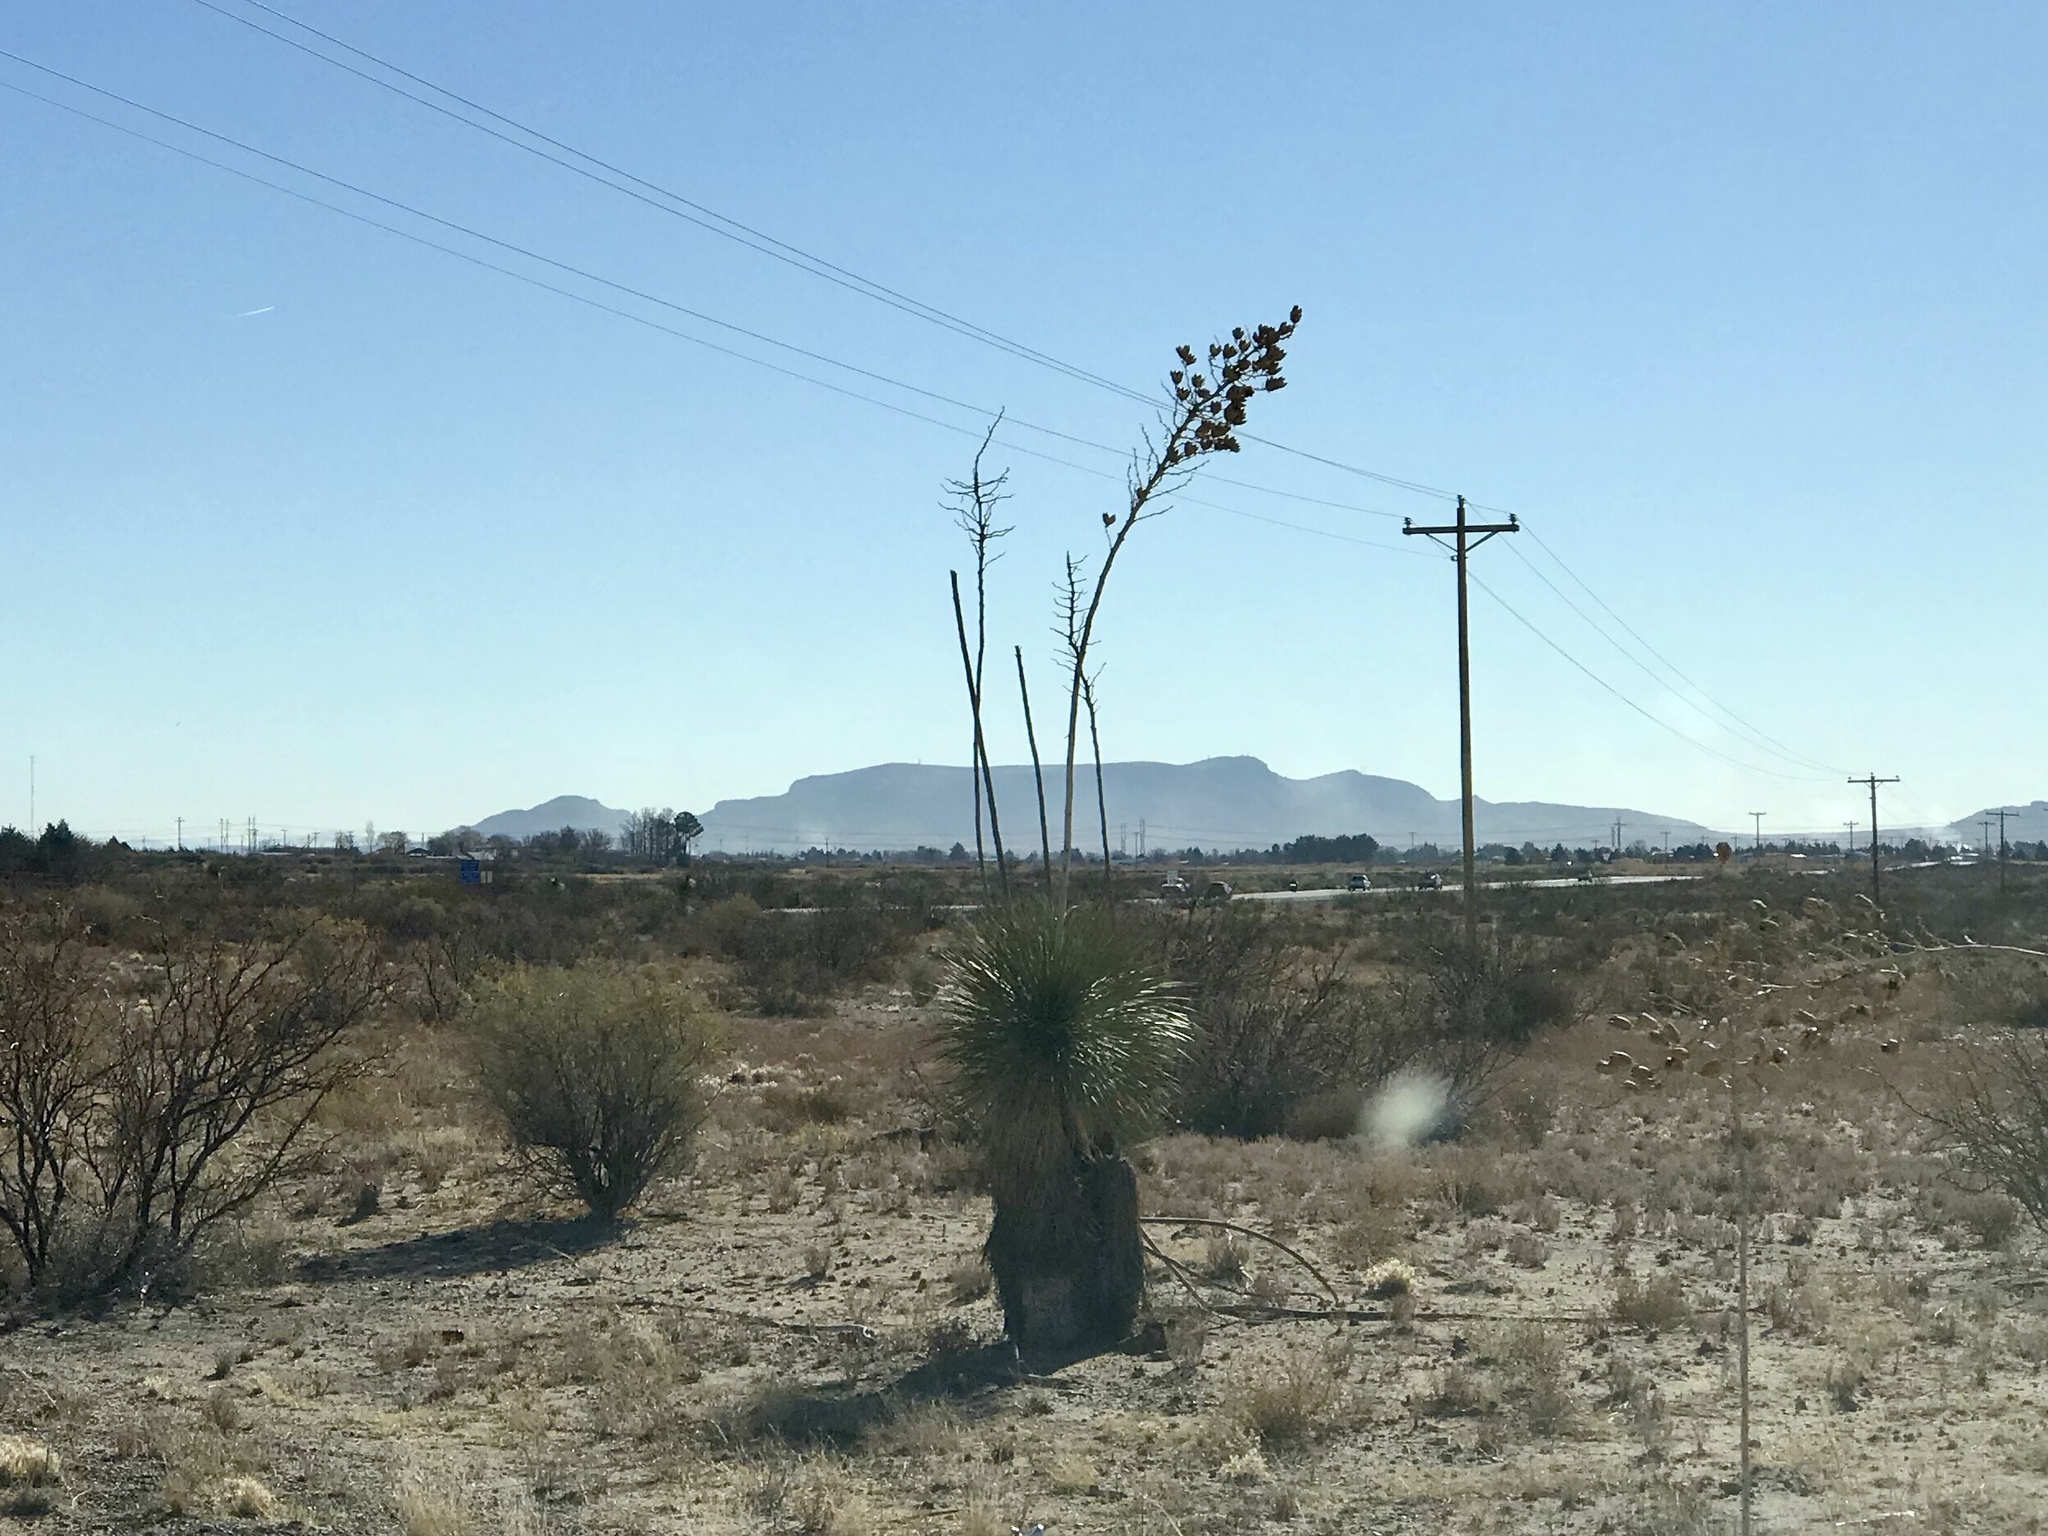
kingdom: Plantae
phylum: Tracheophyta
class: Liliopsida
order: Asparagales
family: Asparagaceae
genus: Yucca
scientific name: Yucca elata
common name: Palmella
